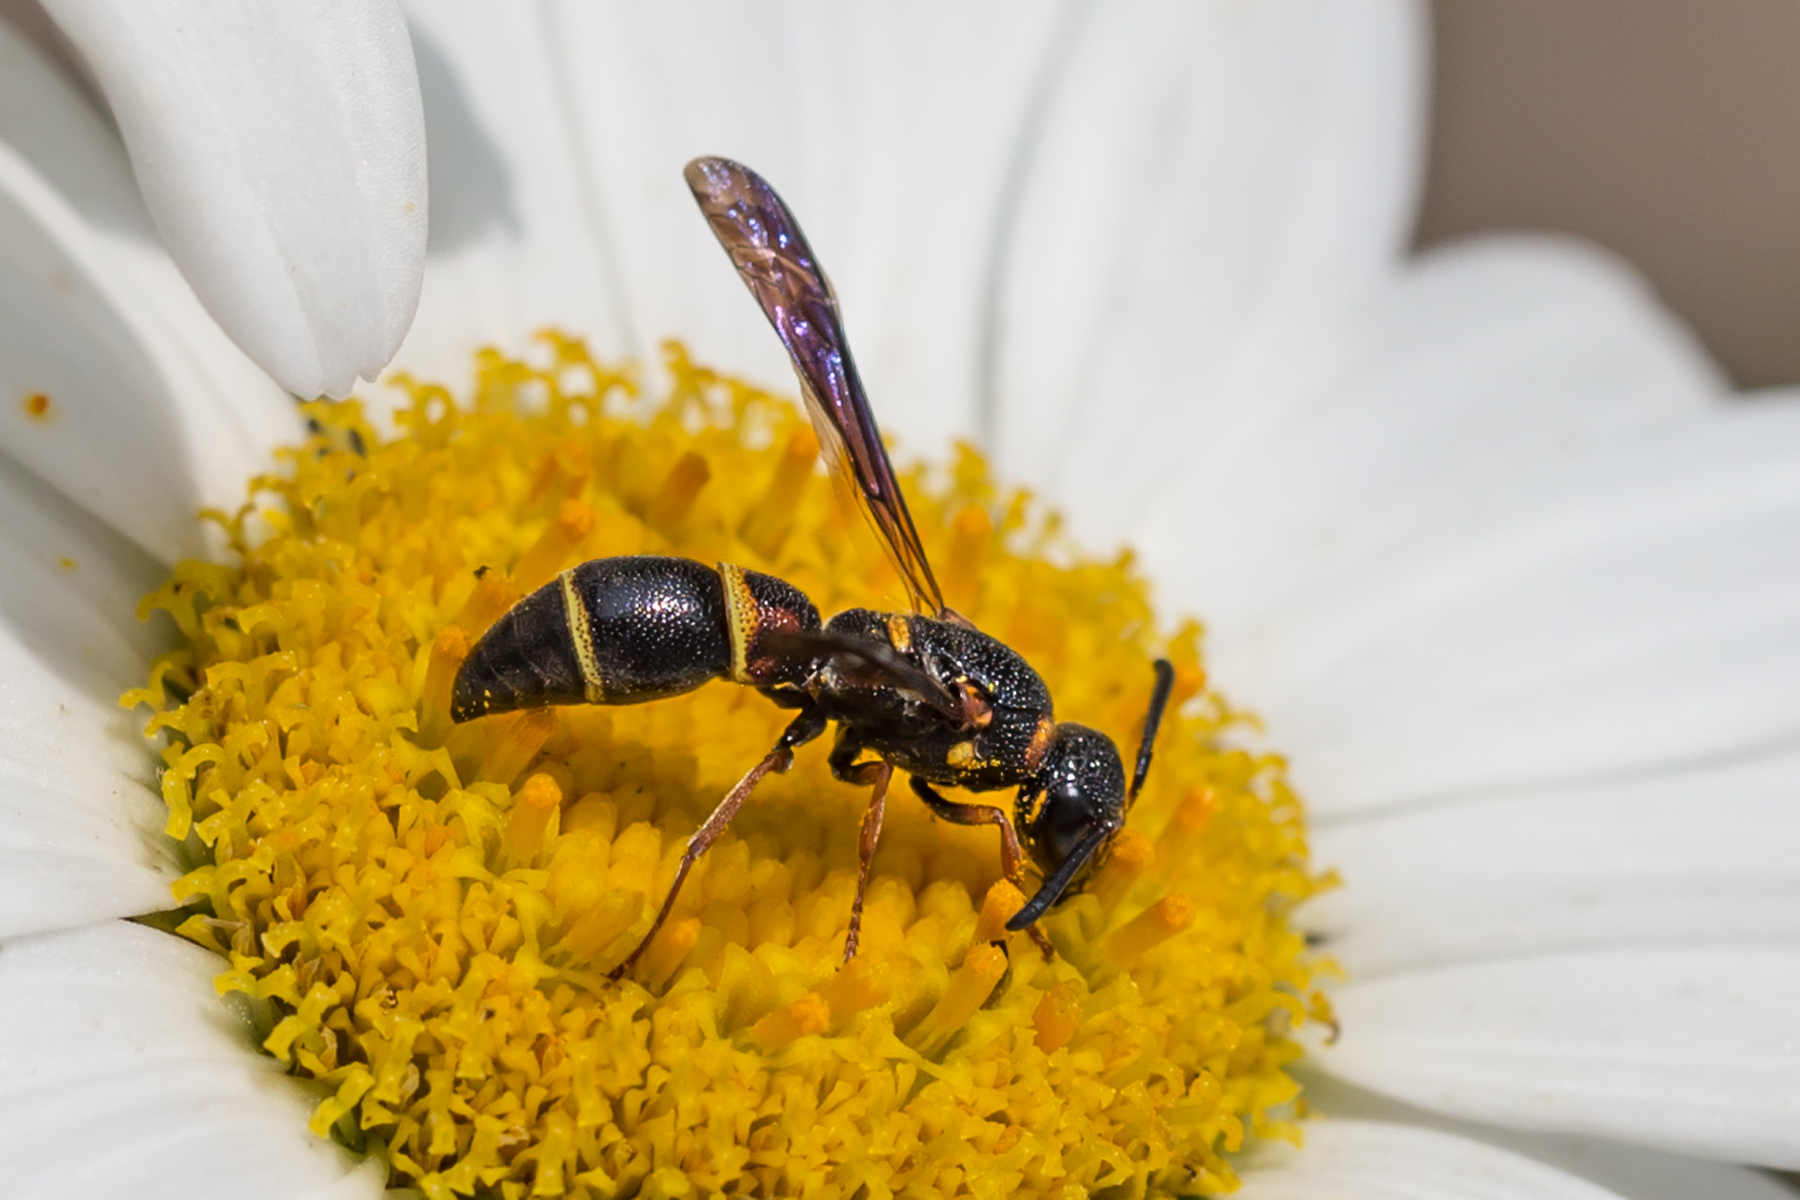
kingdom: Animalia
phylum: Arthropoda
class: Insecta
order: Hymenoptera
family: Eumenidae
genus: Parancistrocerus
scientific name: Parancistrocerus histrio
